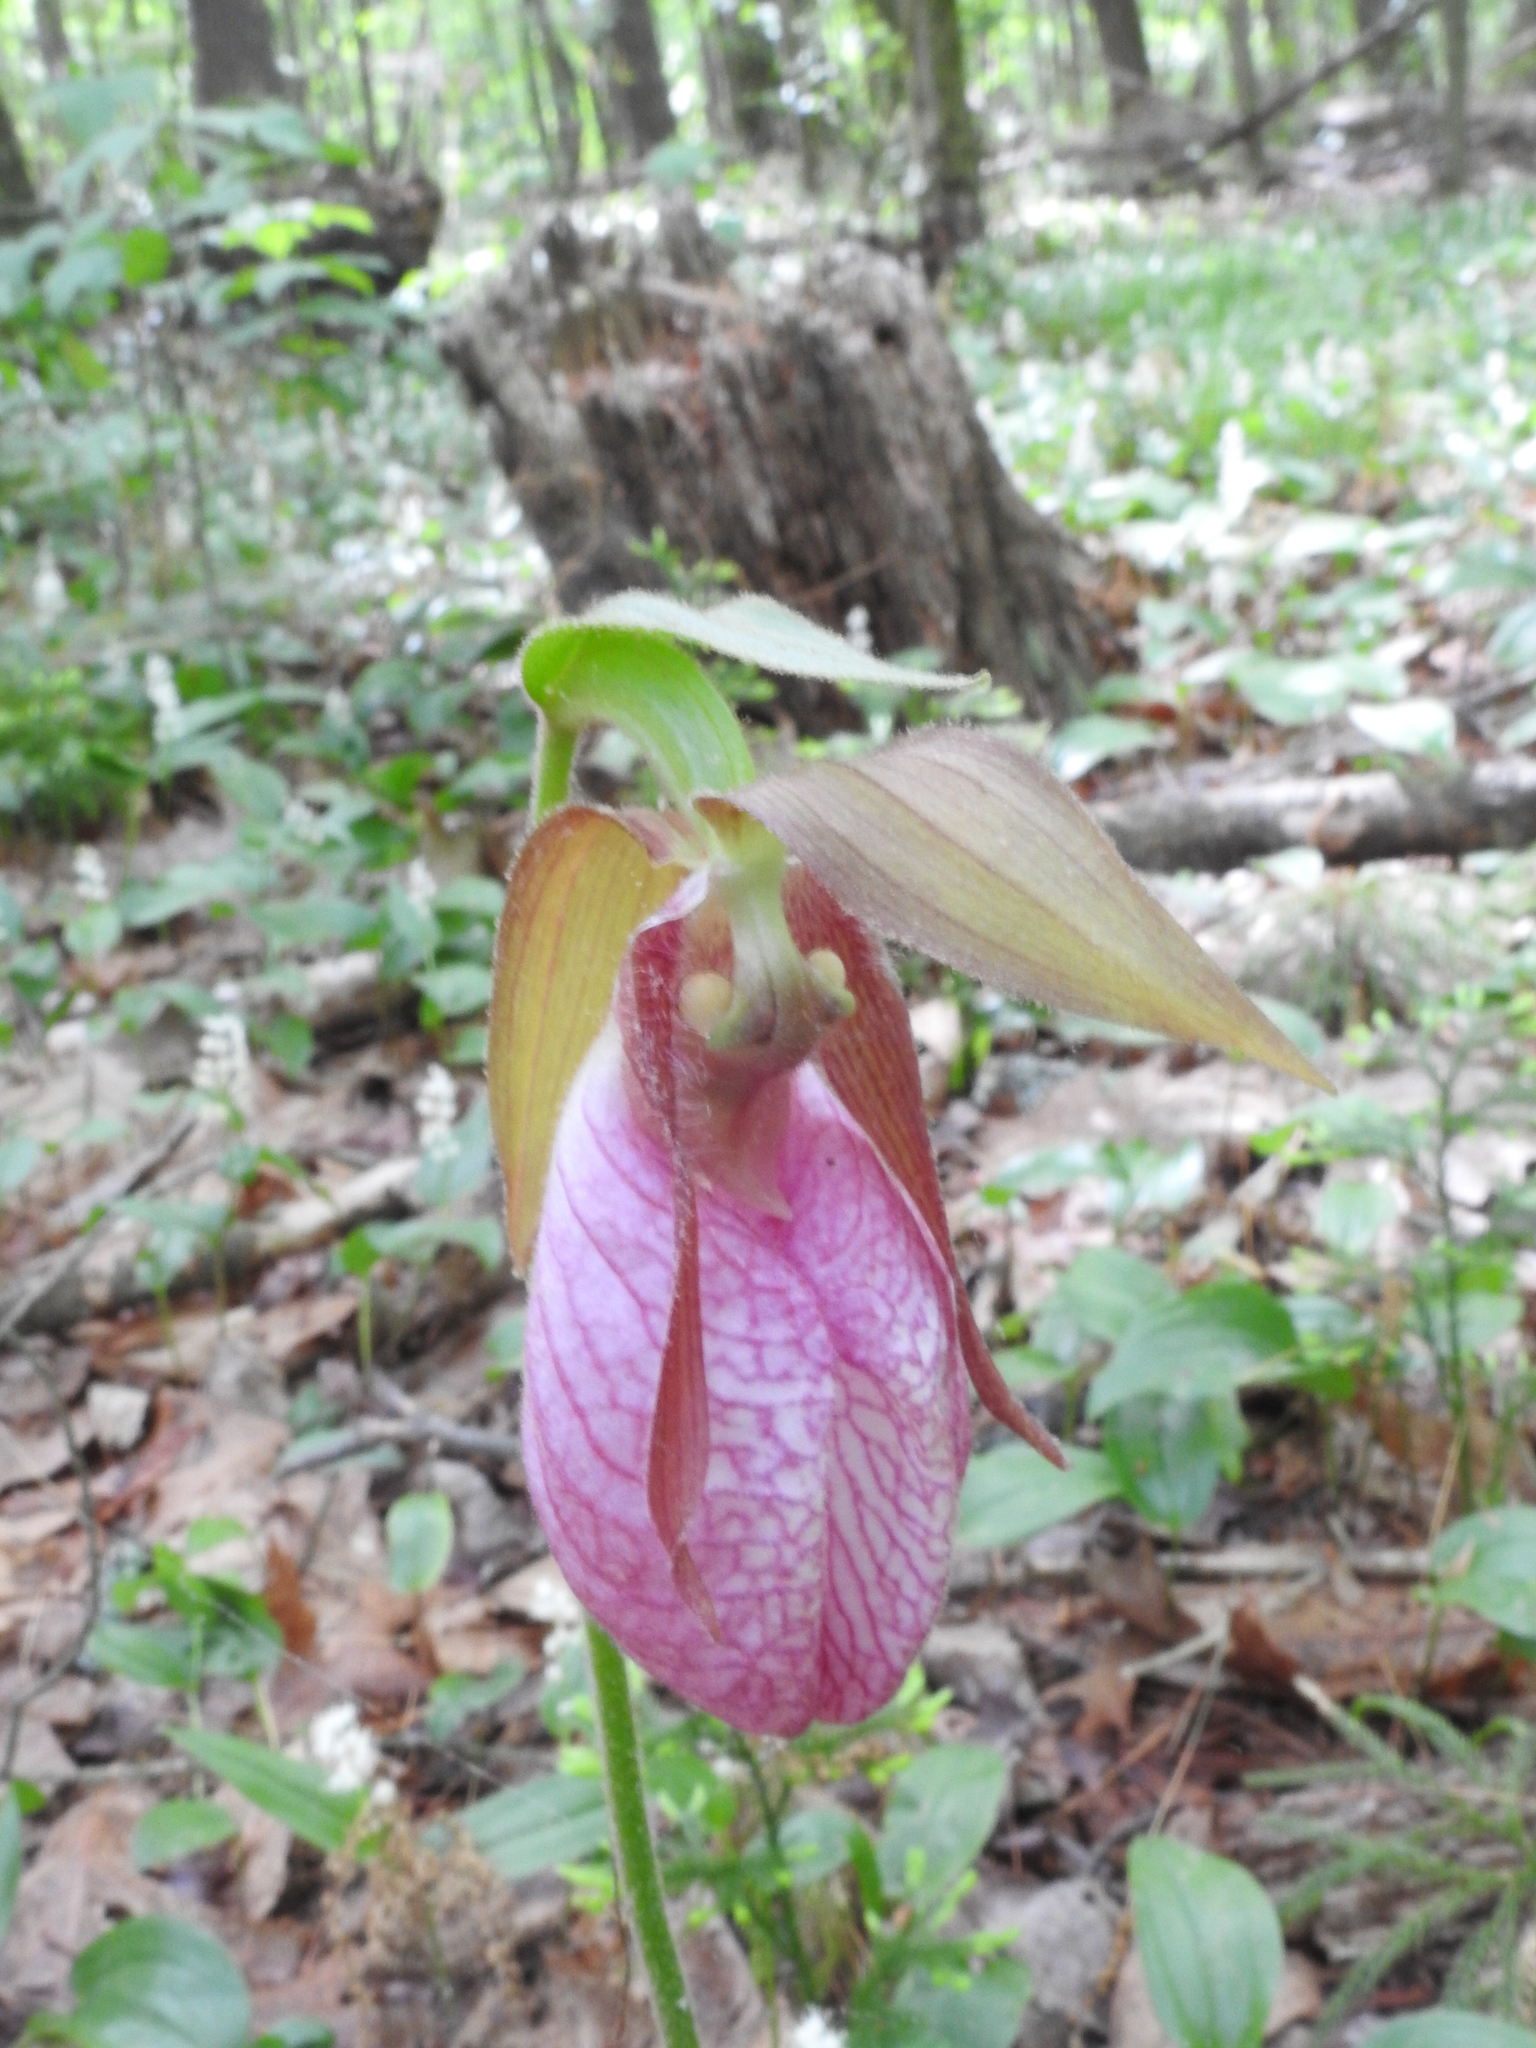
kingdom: Plantae
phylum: Tracheophyta
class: Liliopsida
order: Asparagales
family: Orchidaceae
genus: Cypripedium
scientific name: Cypripedium acaule
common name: Pink lady's-slipper
